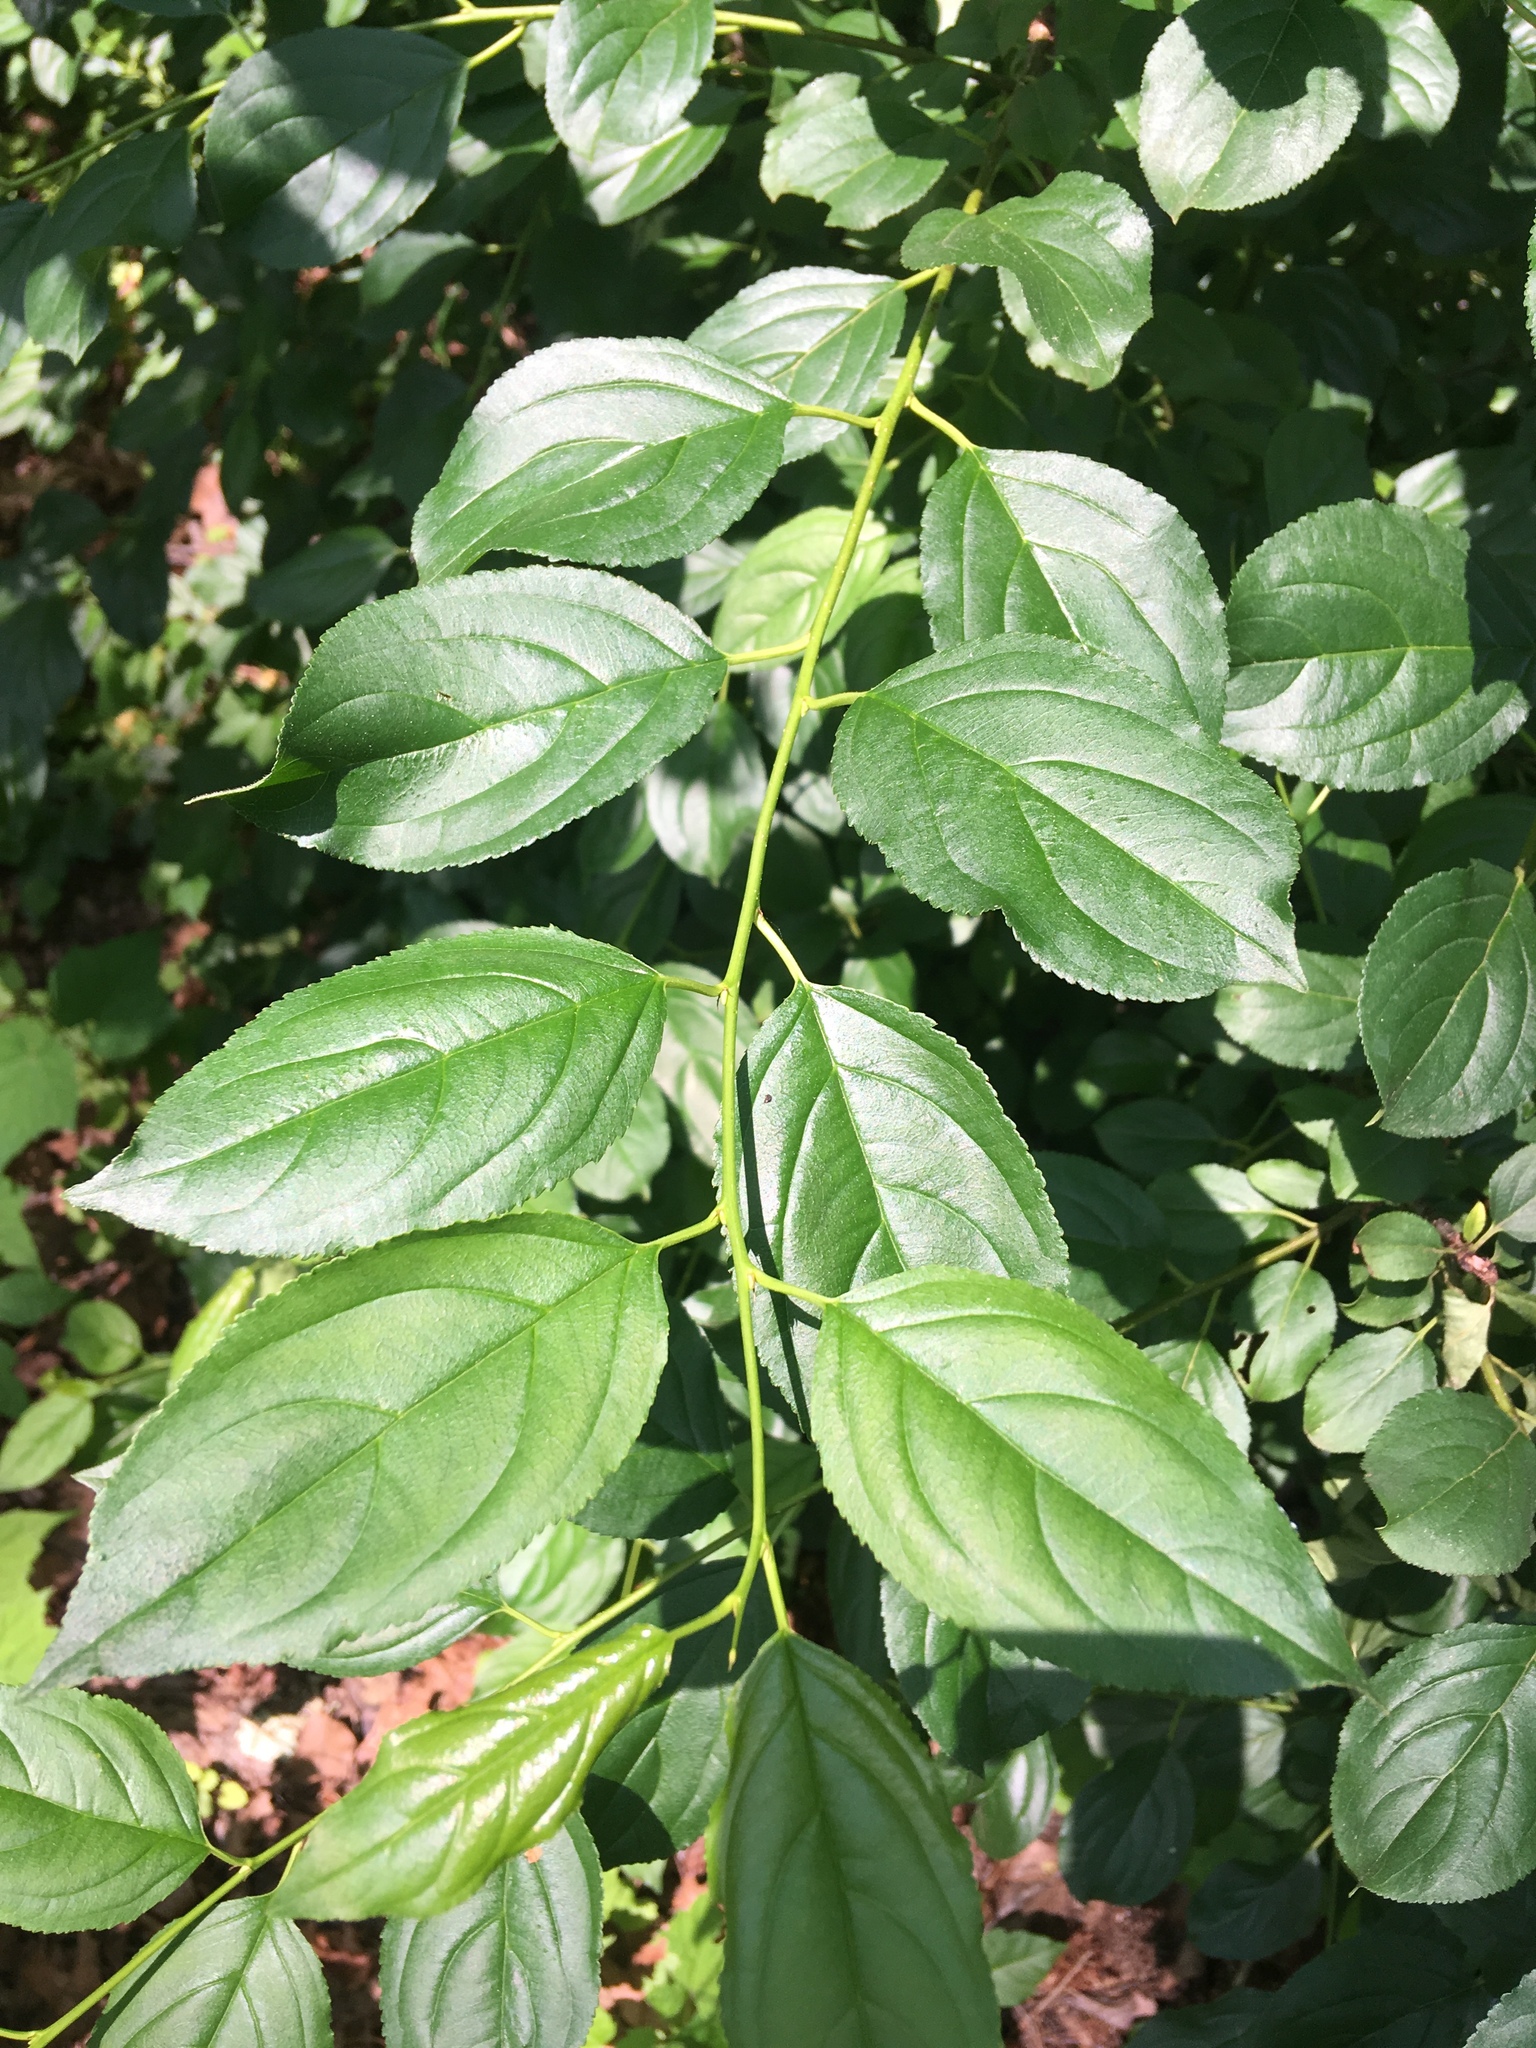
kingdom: Plantae
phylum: Tracheophyta
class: Magnoliopsida
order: Rosales
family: Rhamnaceae
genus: Rhamnus
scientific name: Rhamnus cathartica
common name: Common buckthorn
